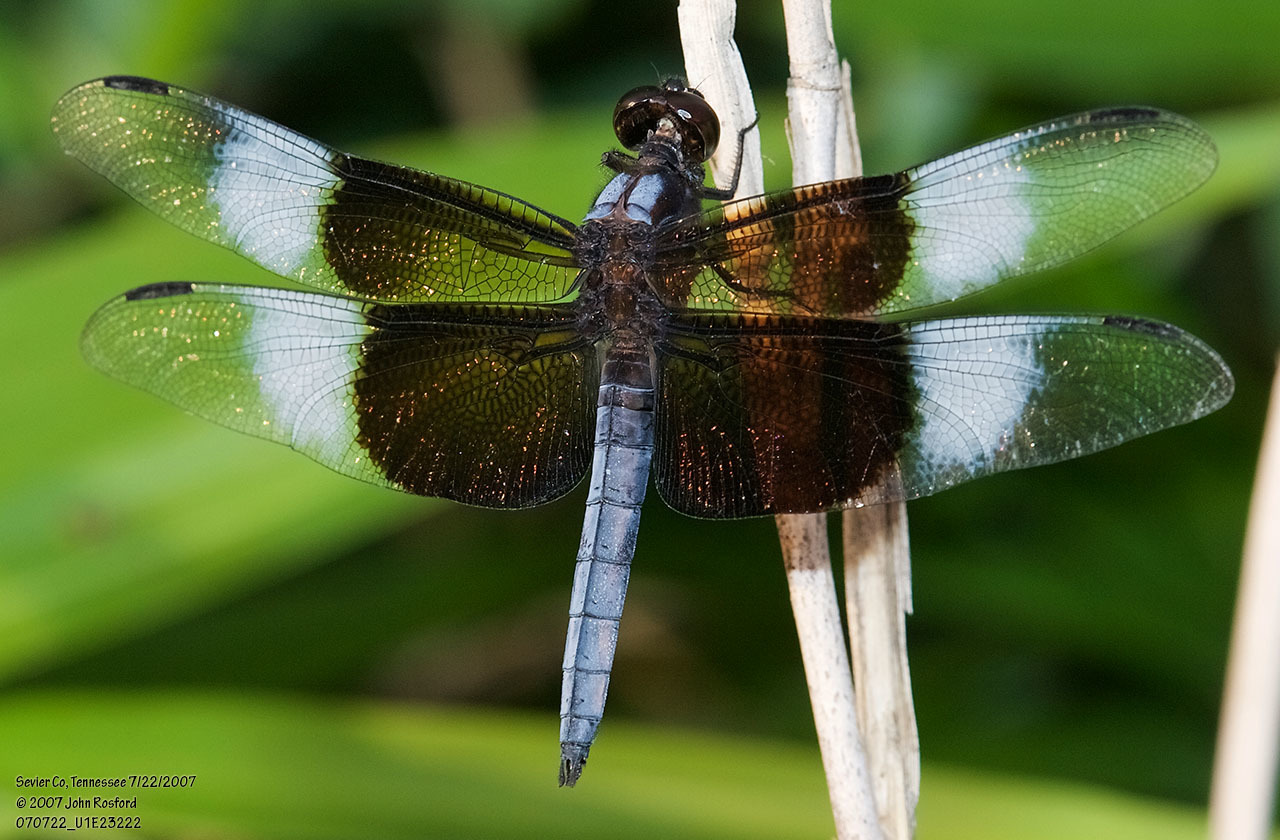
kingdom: Animalia
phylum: Arthropoda
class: Insecta
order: Odonata
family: Libellulidae
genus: Libellula
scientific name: Libellula luctuosa
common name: Widow skimmer
